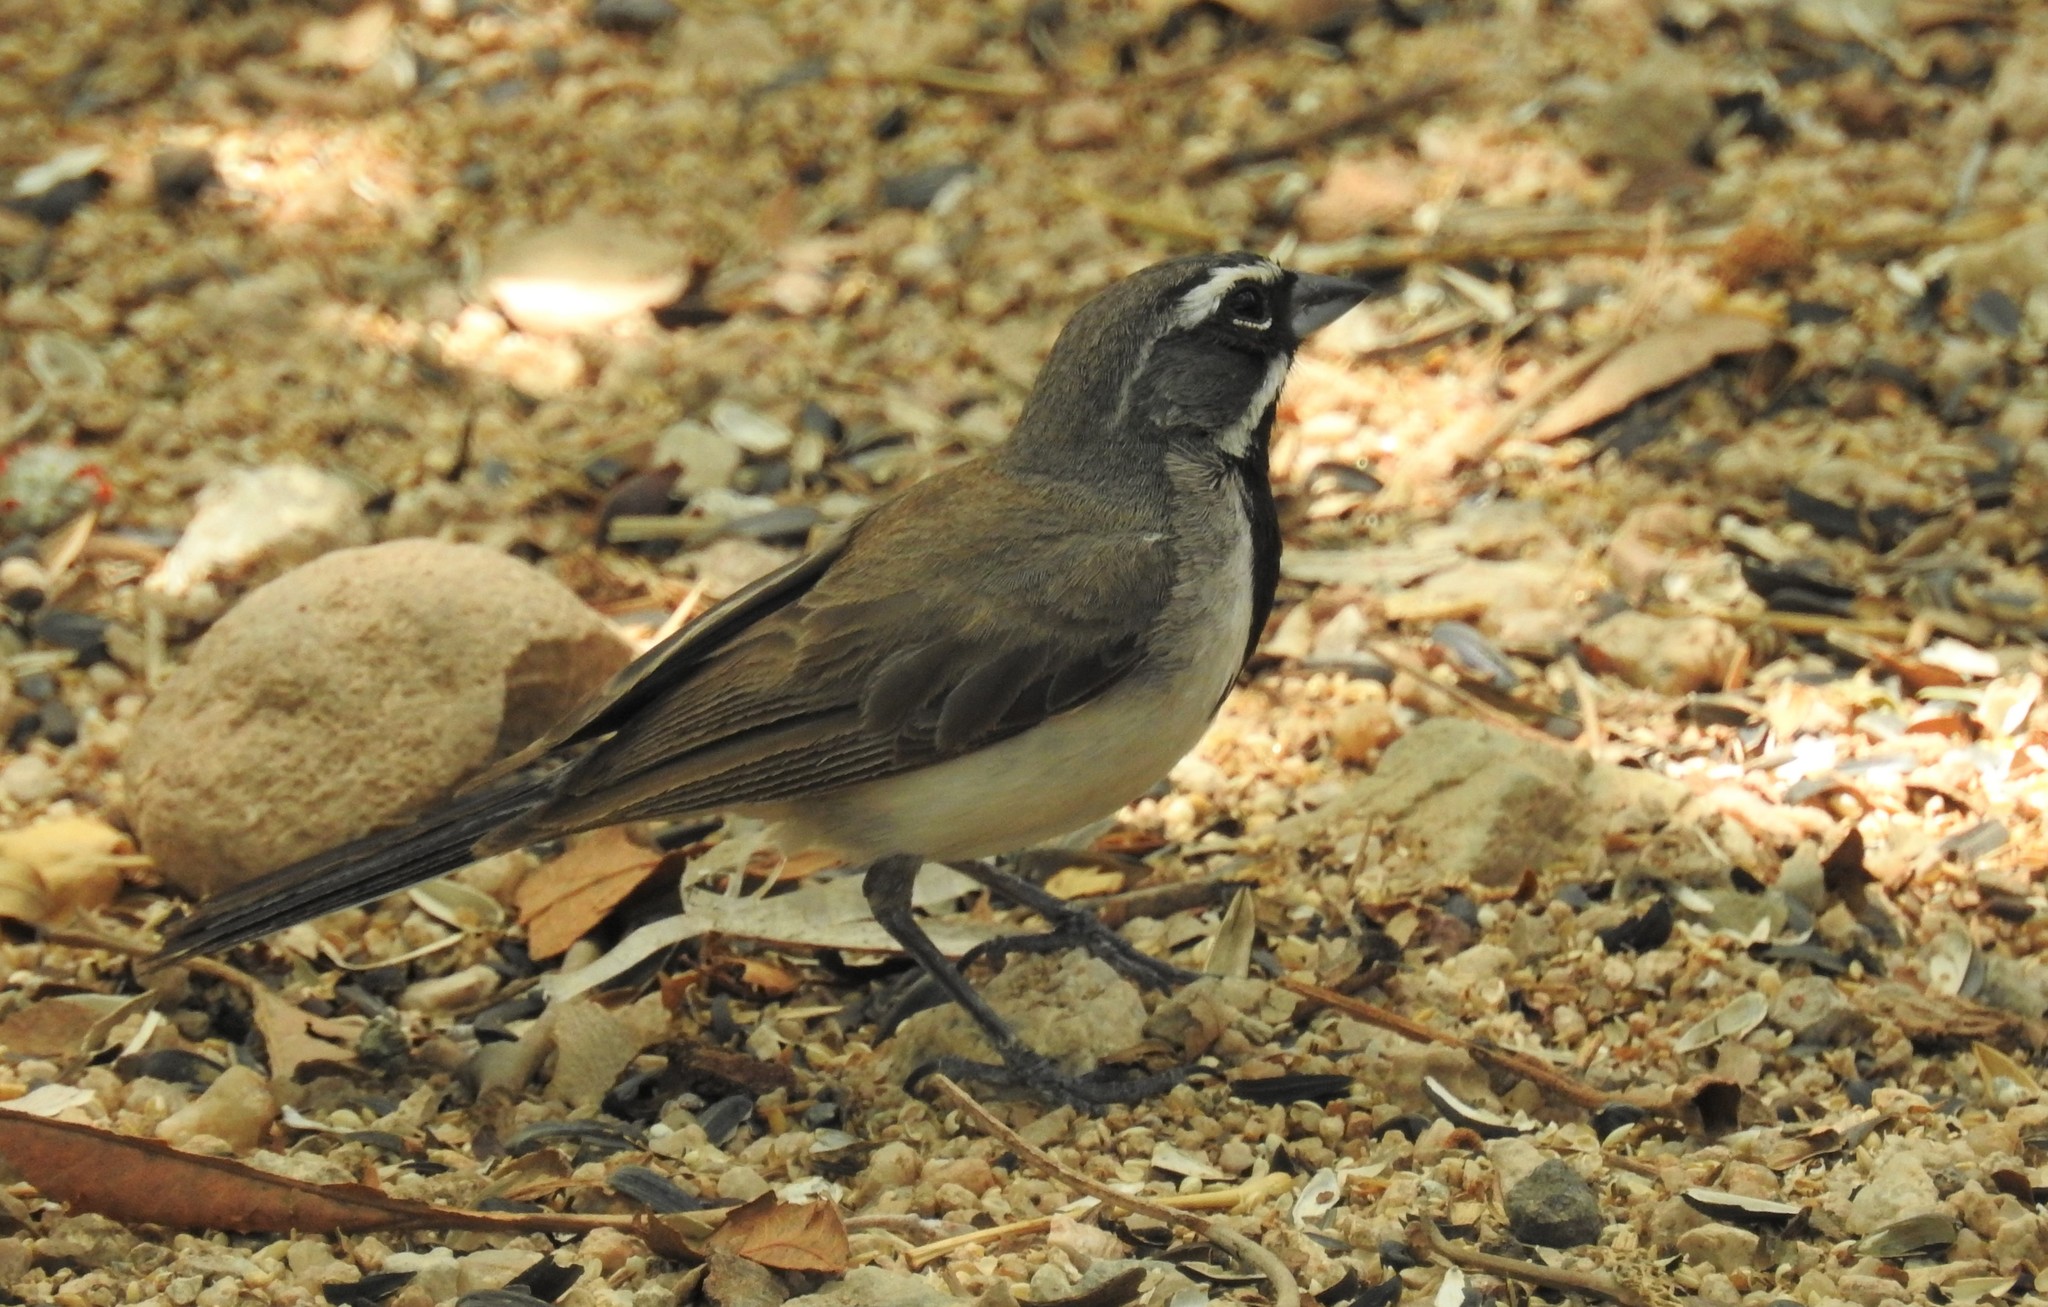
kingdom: Animalia
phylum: Chordata
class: Aves
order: Passeriformes
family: Passerellidae
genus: Amphispiza
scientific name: Amphispiza bilineata
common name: Black-throated sparrow
